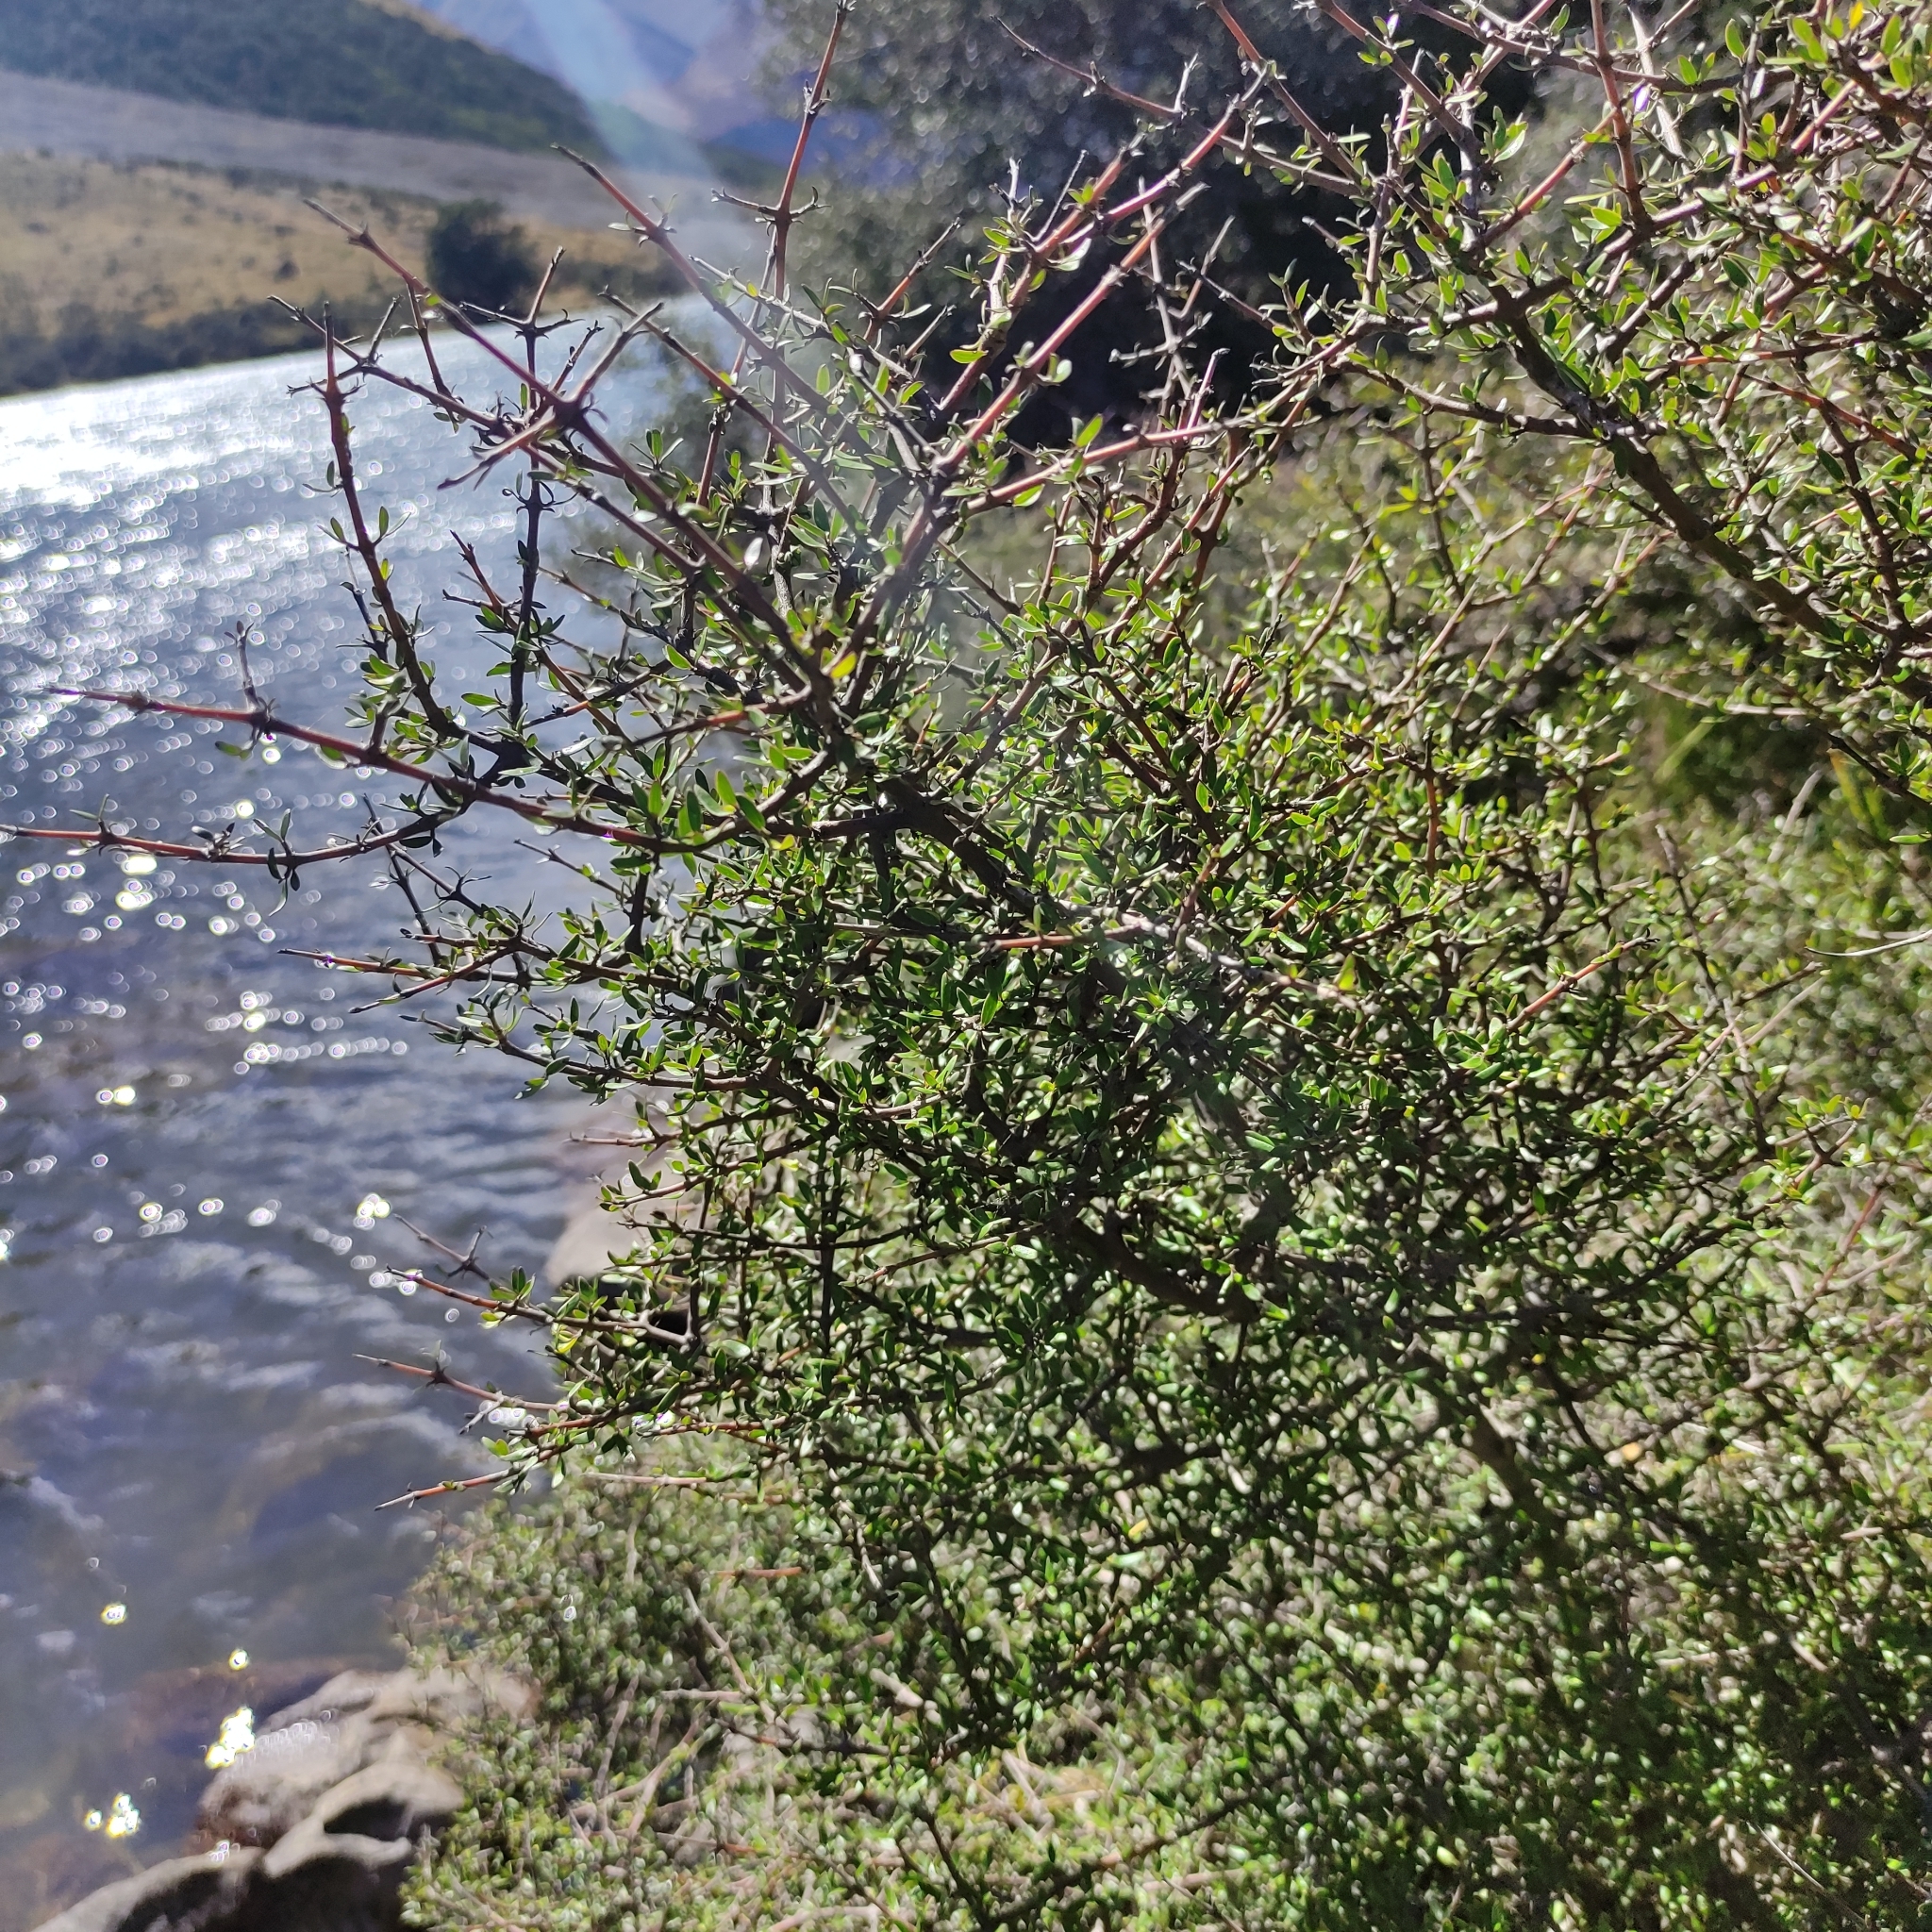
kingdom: Plantae
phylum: Tracheophyta
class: Magnoliopsida
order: Gentianales
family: Rubiaceae
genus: Coprosma
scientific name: Coprosma propinqua
